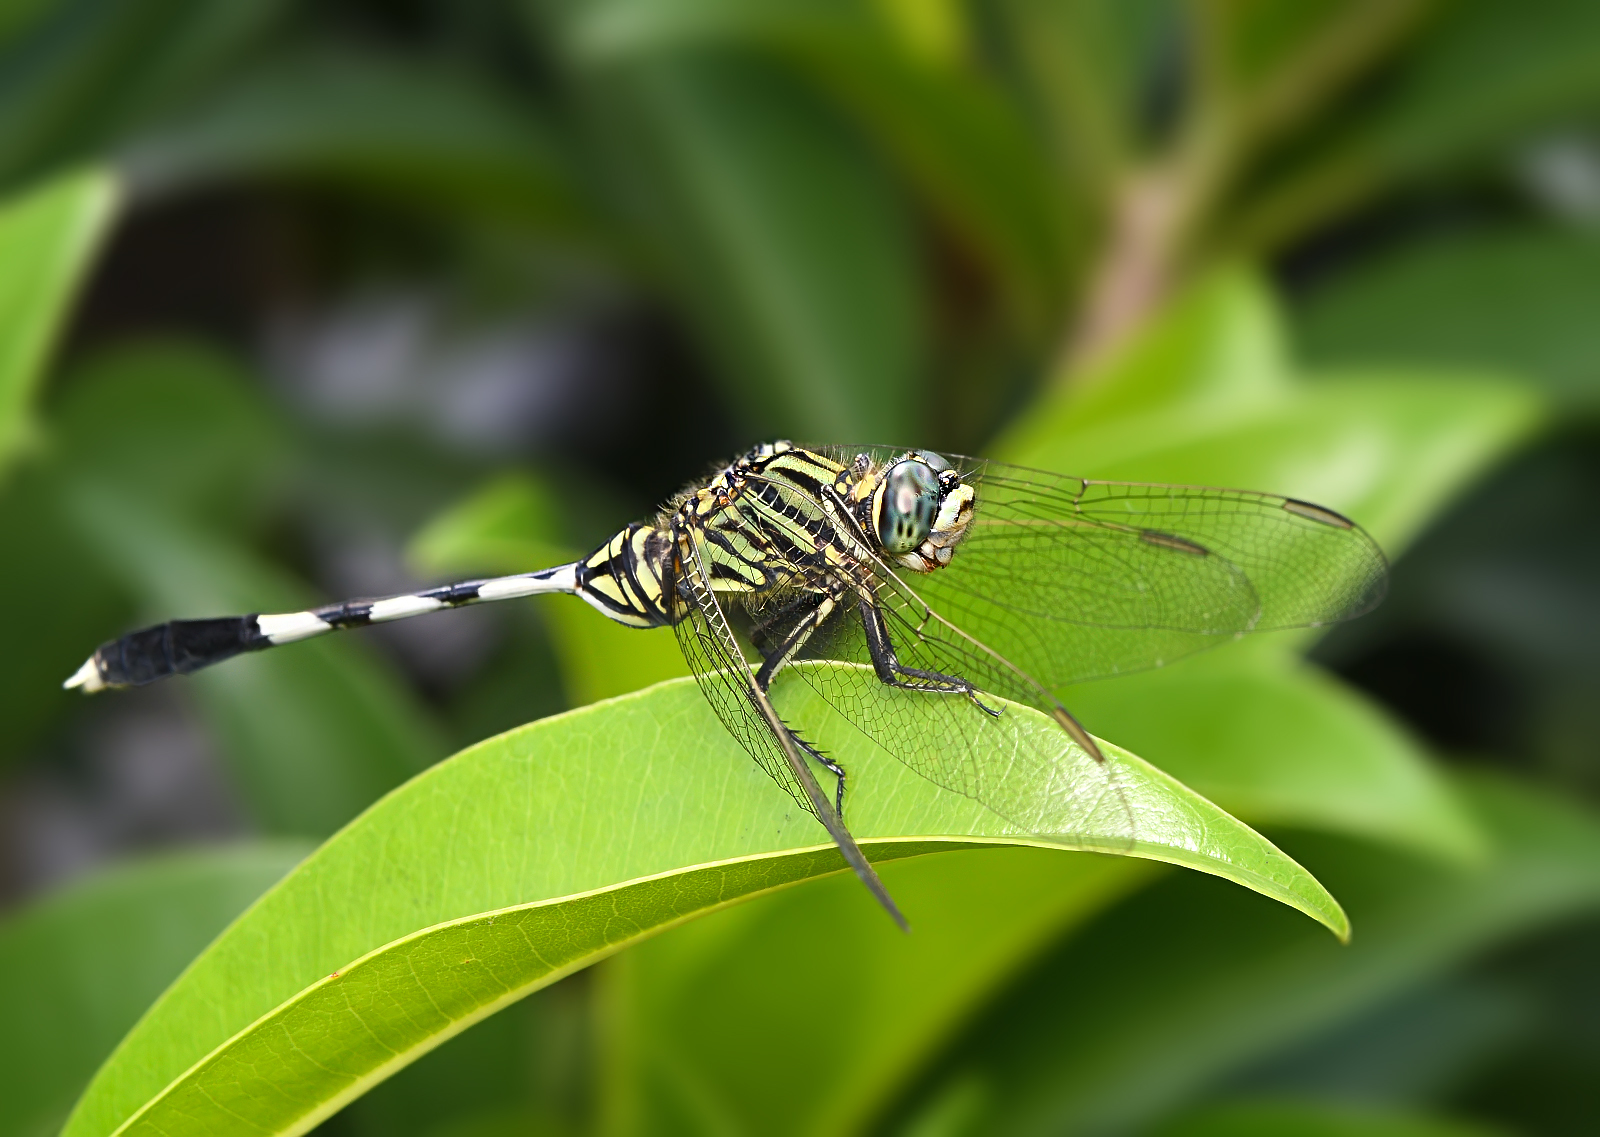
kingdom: Animalia
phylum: Arthropoda
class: Insecta
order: Odonata
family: Libellulidae
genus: Orthetrum
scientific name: Orthetrum sabina
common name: Slender skimmer
